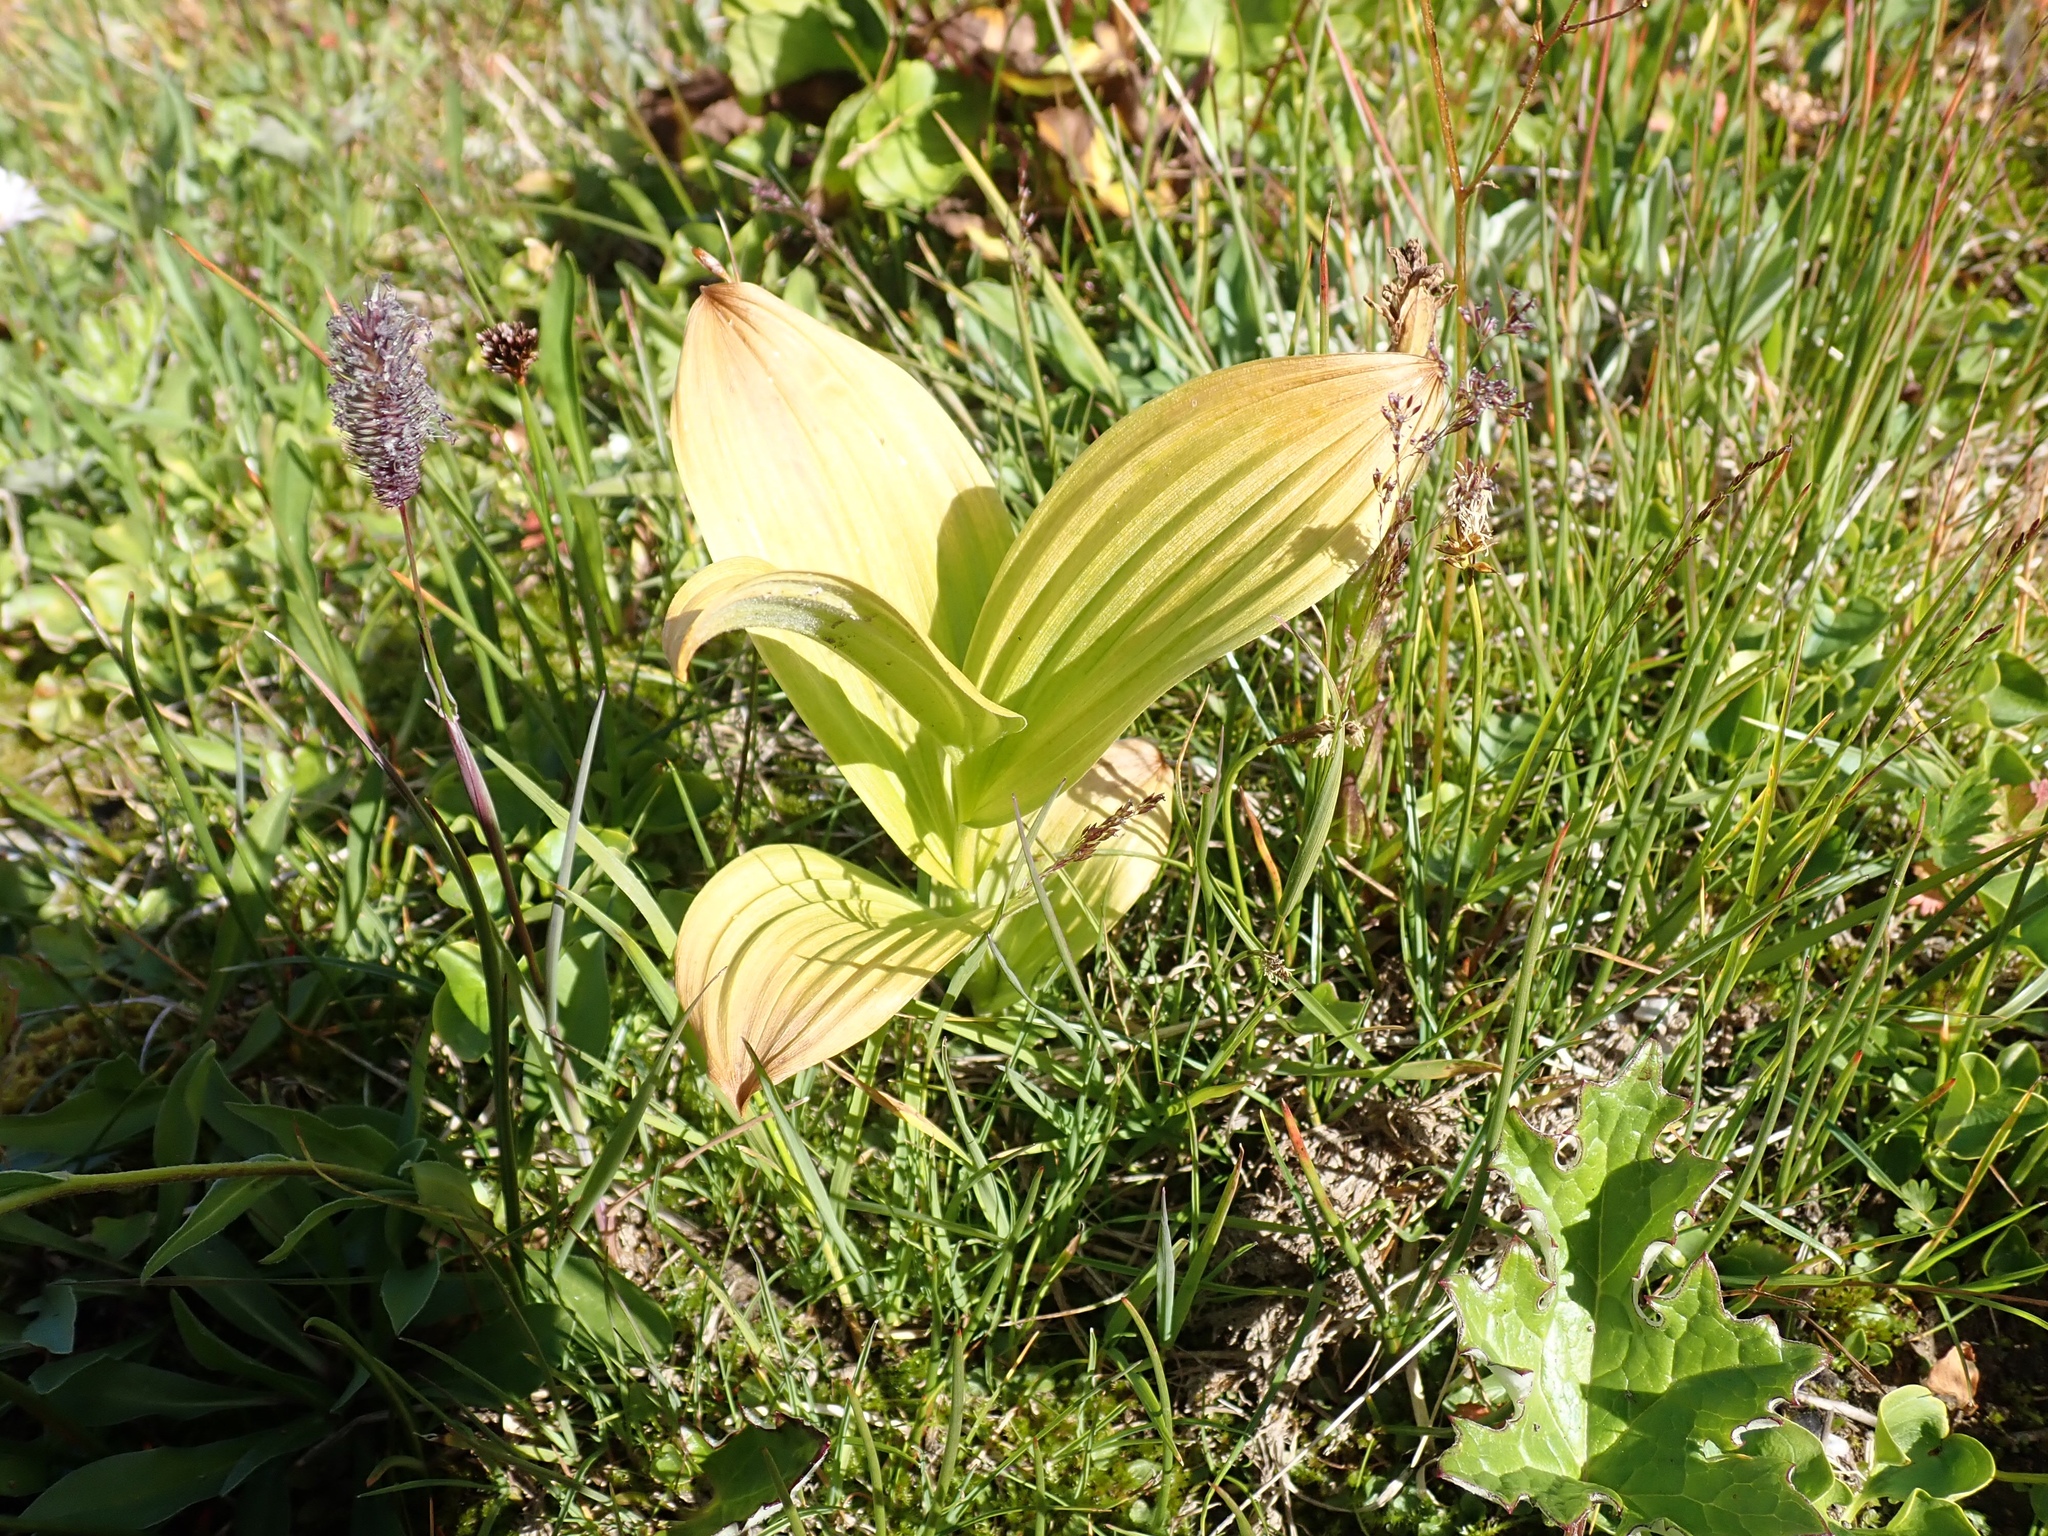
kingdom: Plantae
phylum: Tracheophyta
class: Liliopsida
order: Liliales
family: Melanthiaceae
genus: Veratrum
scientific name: Veratrum viride
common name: American false hellebore
